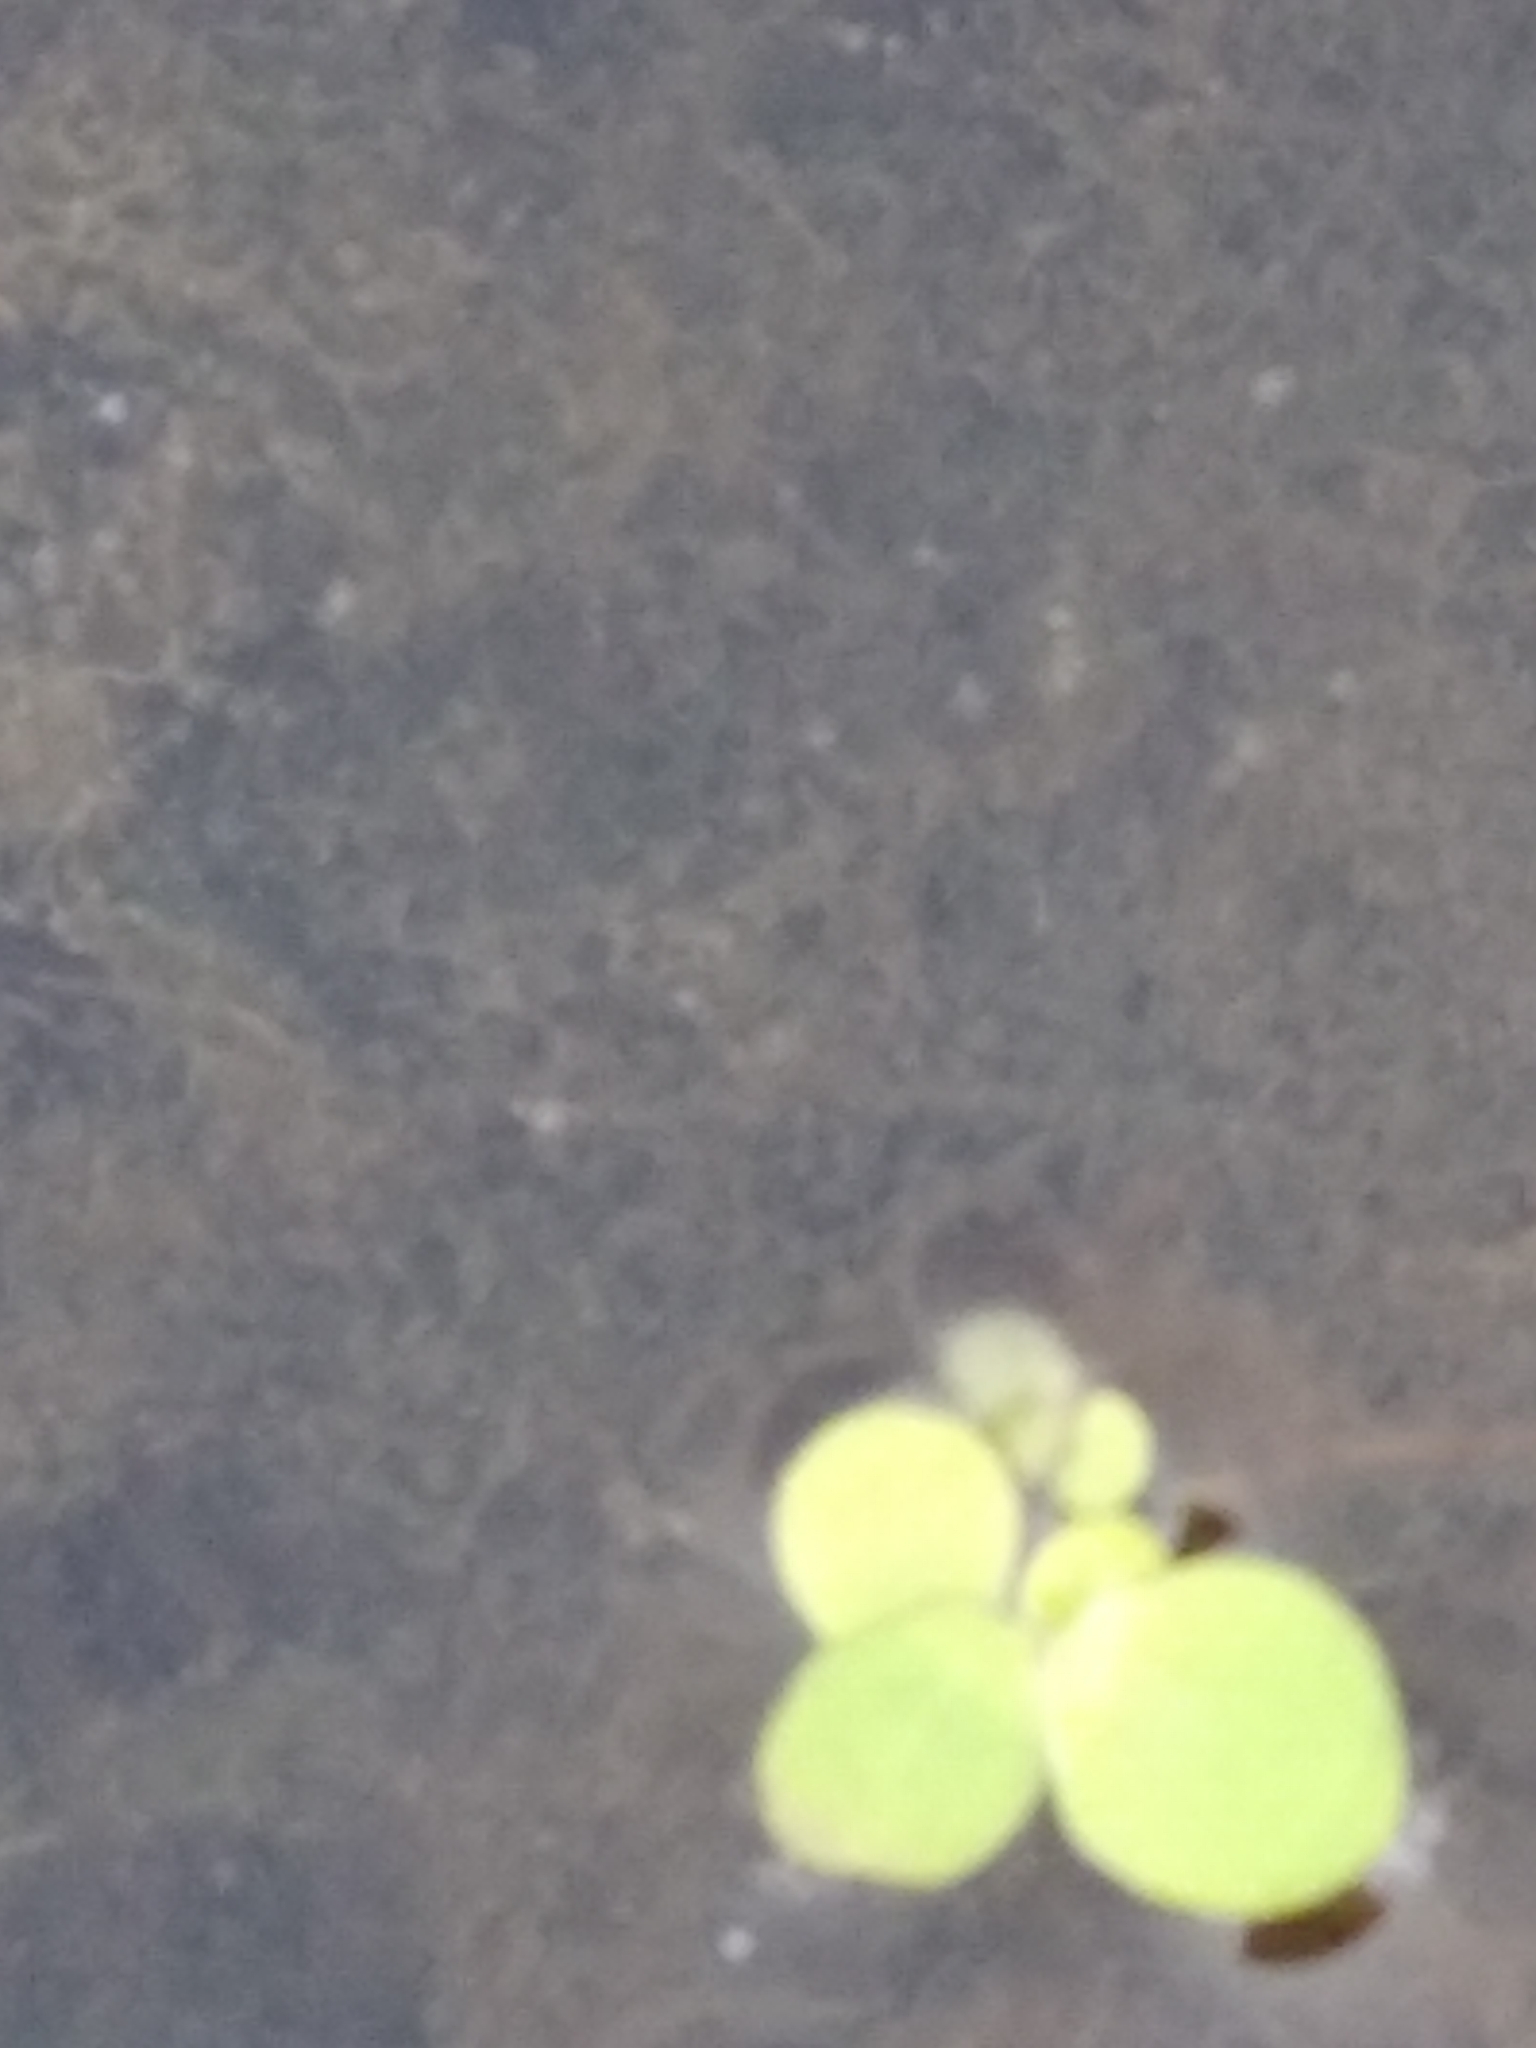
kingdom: Plantae
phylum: Tracheophyta
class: Liliopsida
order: Alismatales
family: Araceae
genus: Spirodela
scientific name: Spirodela polyrhiza
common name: Great duckweed
